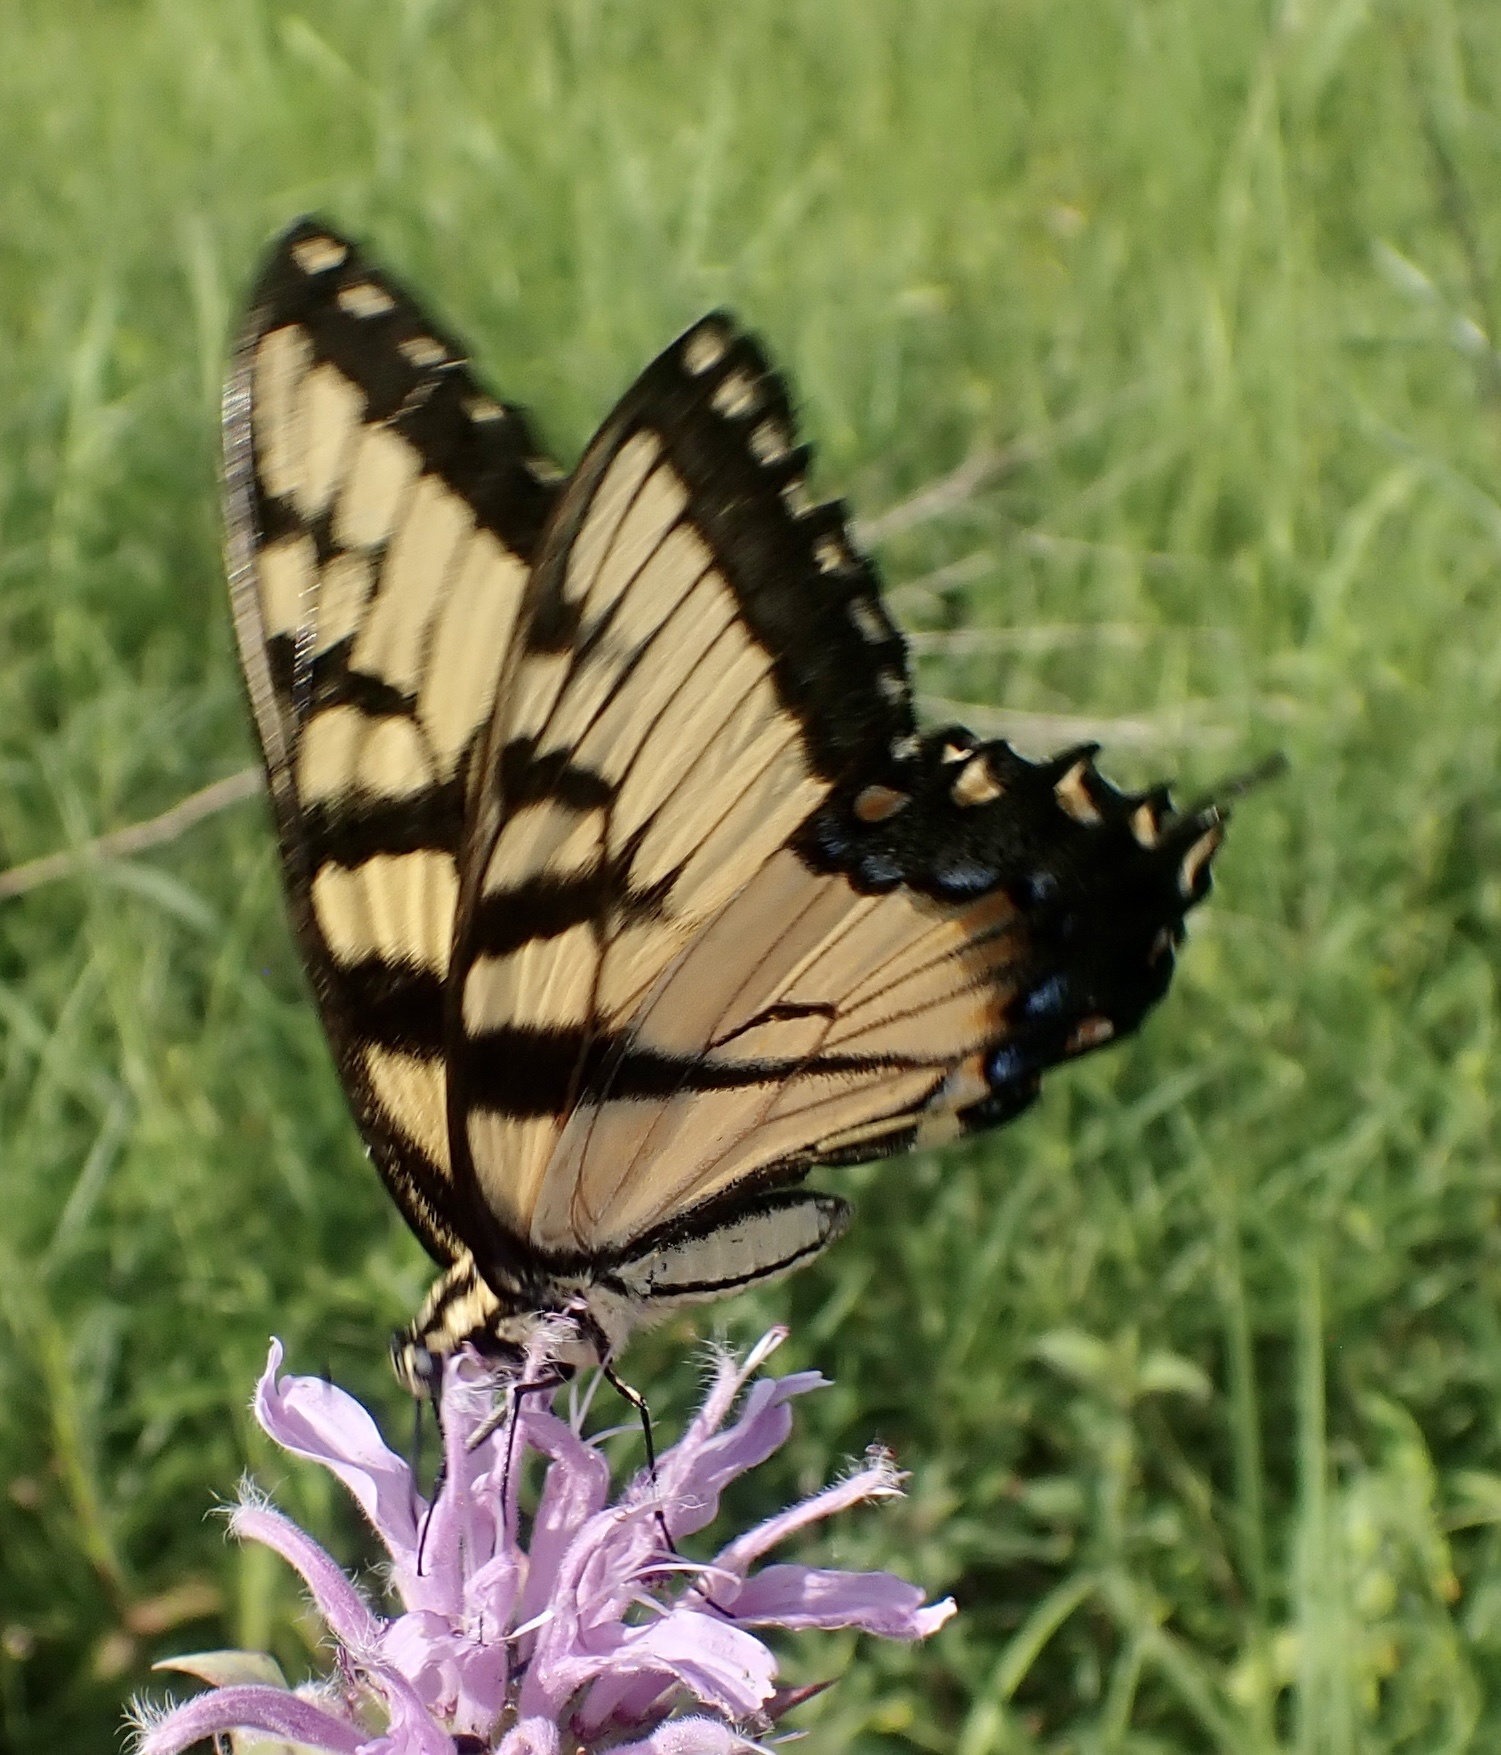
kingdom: Animalia
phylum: Arthropoda
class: Insecta
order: Lepidoptera
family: Papilionidae
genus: Papilio
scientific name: Papilio glaucus
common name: Tiger swallowtail
